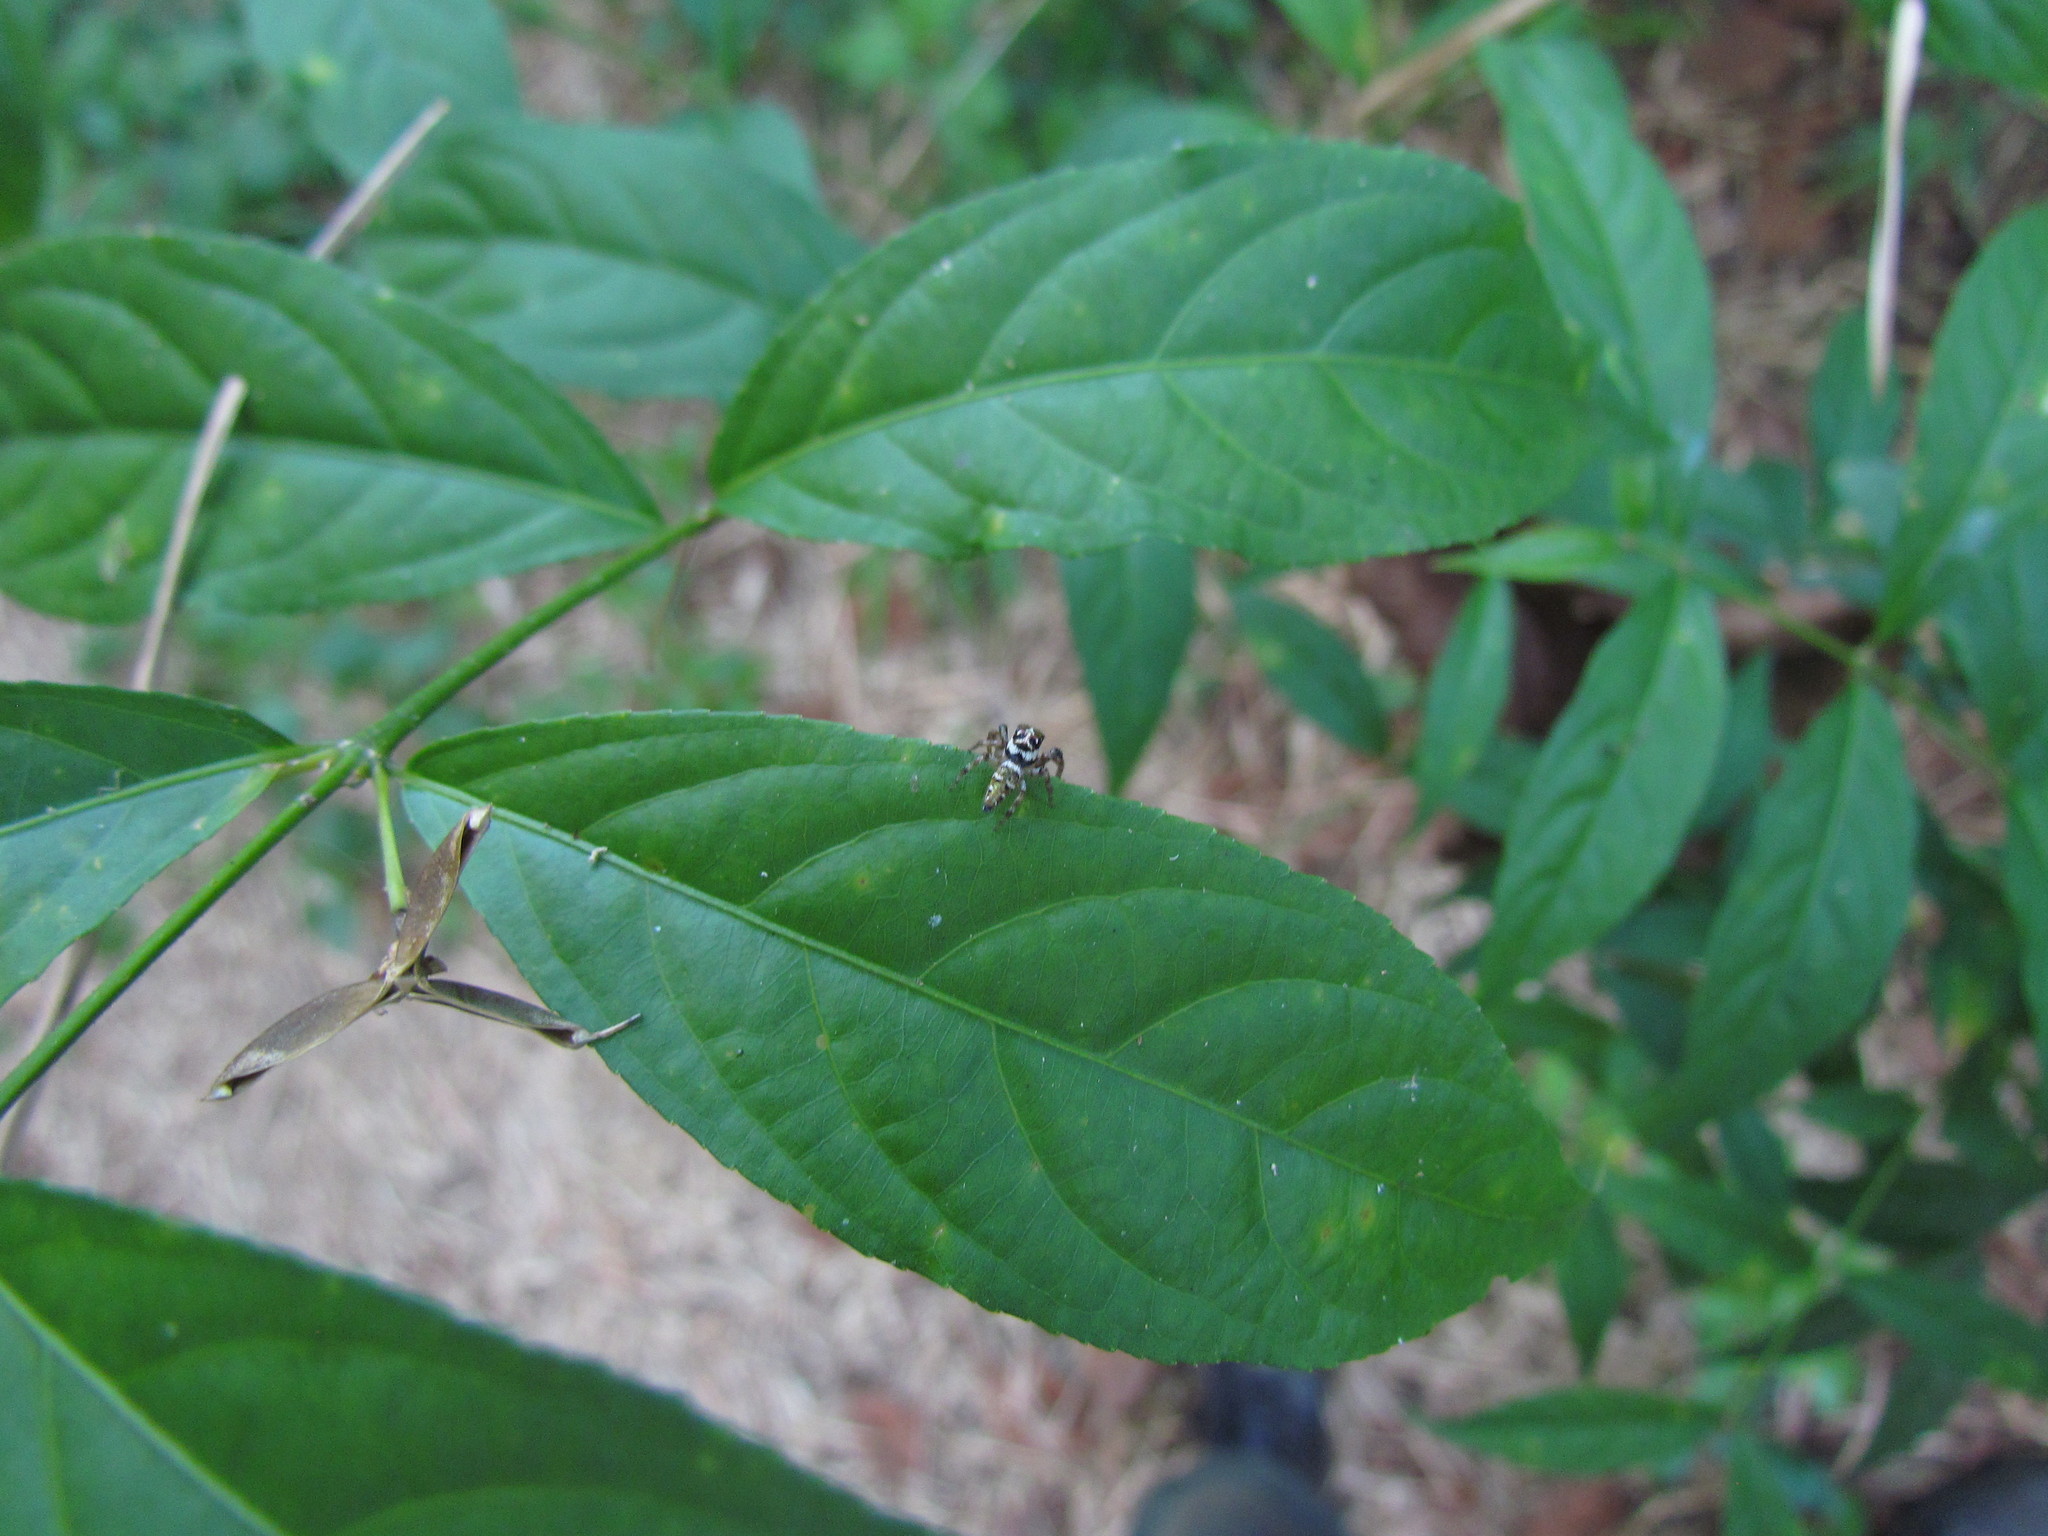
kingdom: Animalia
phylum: Arthropoda
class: Arachnida
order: Araneae
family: Salticidae
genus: Philira
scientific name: Philira micans
